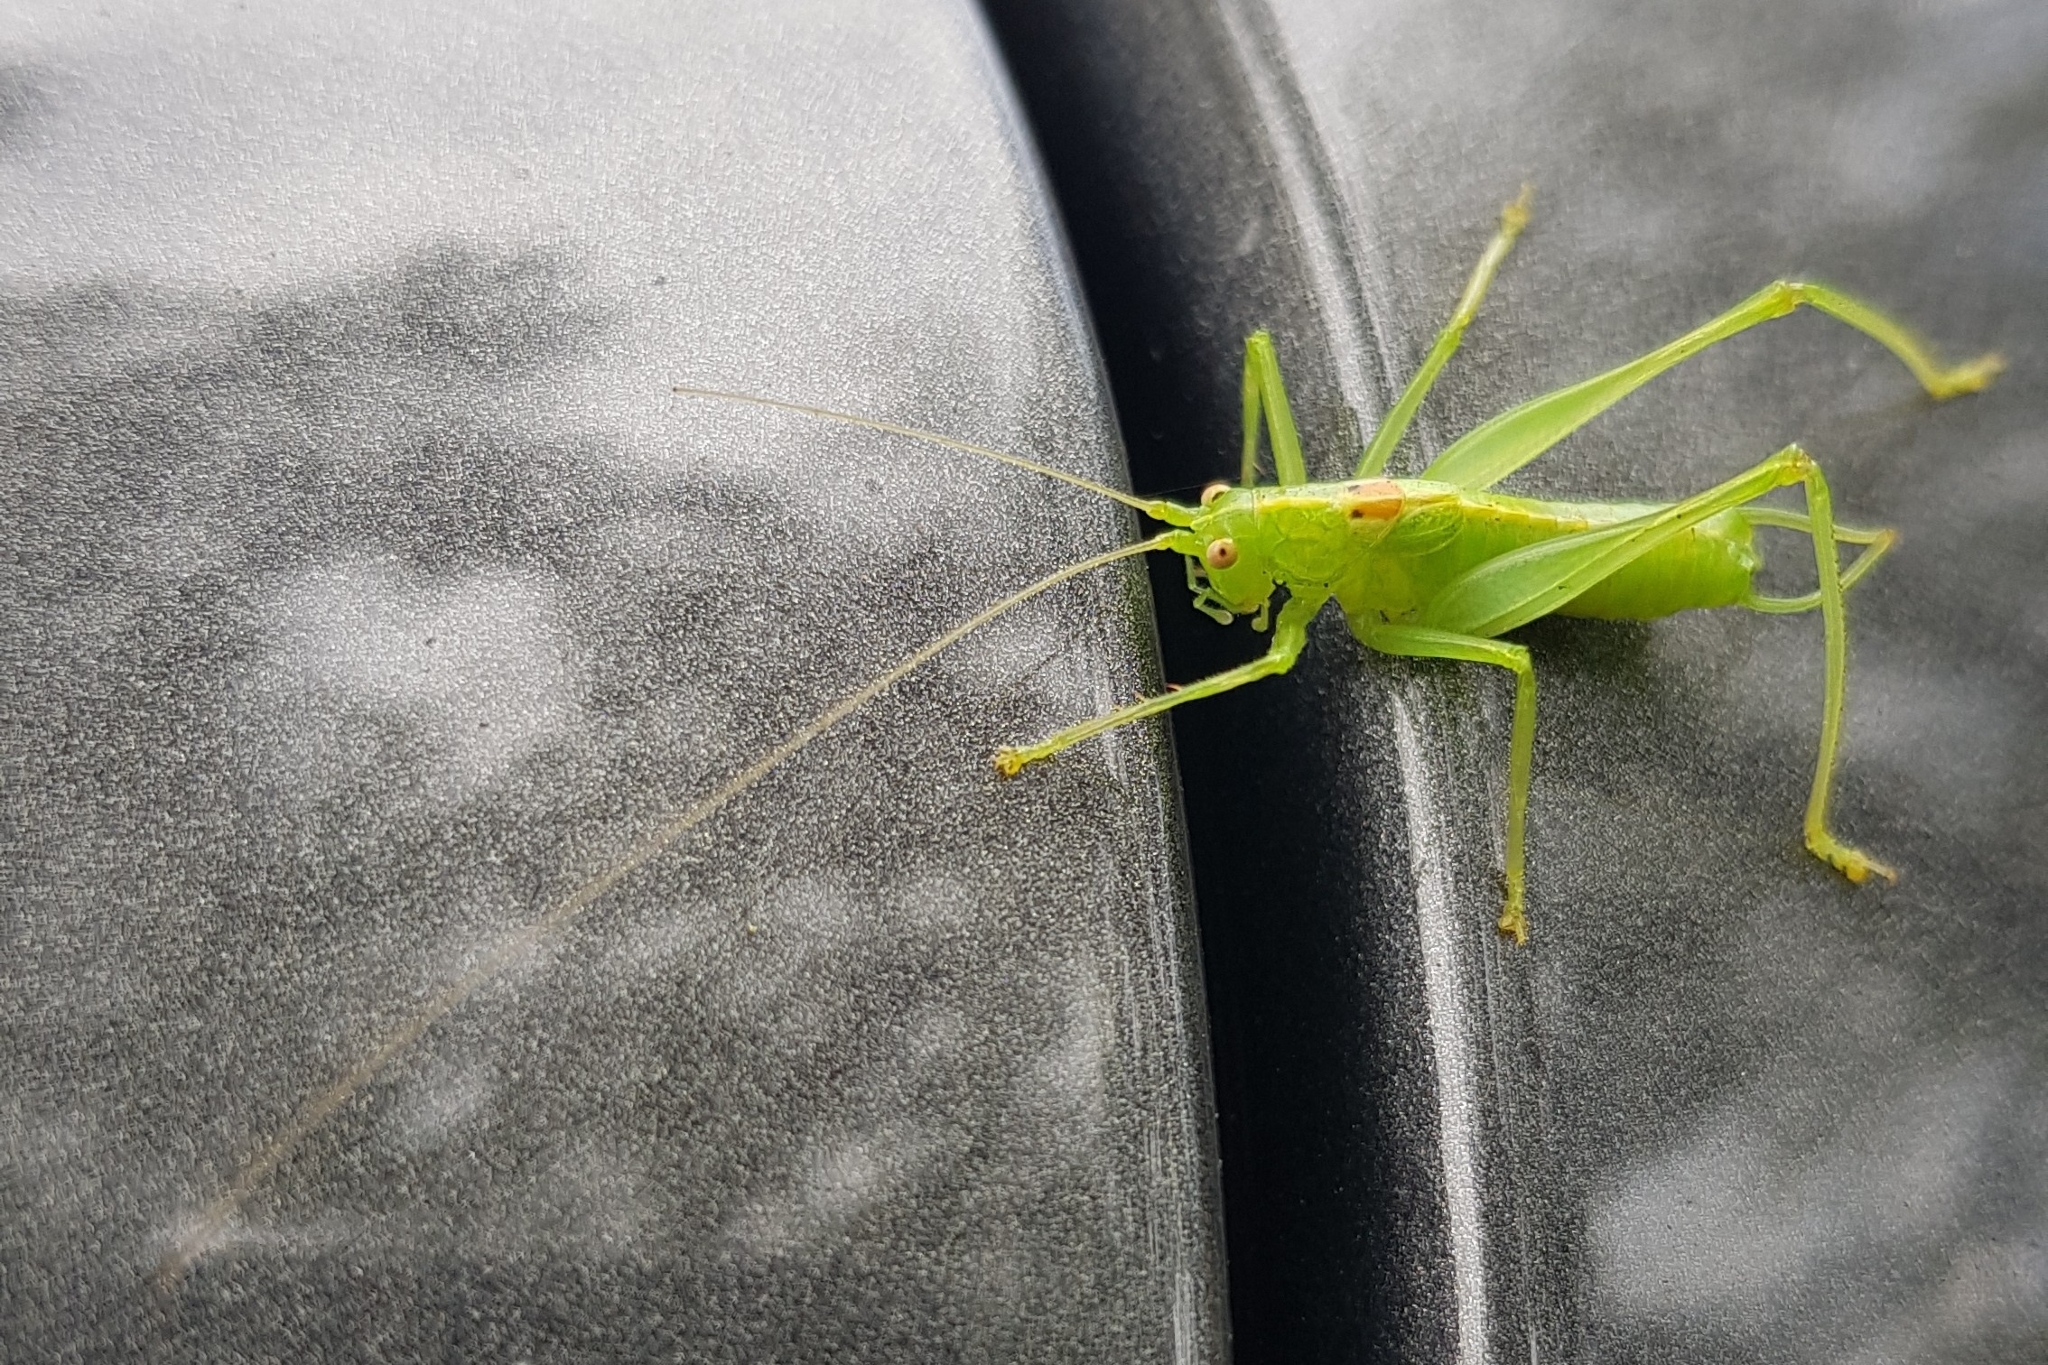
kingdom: Animalia
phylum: Arthropoda
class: Insecta
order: Orthoptera
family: Tettigoniidae
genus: Meconema
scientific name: Meconema meridionale
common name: Southern oak bush-cricket
